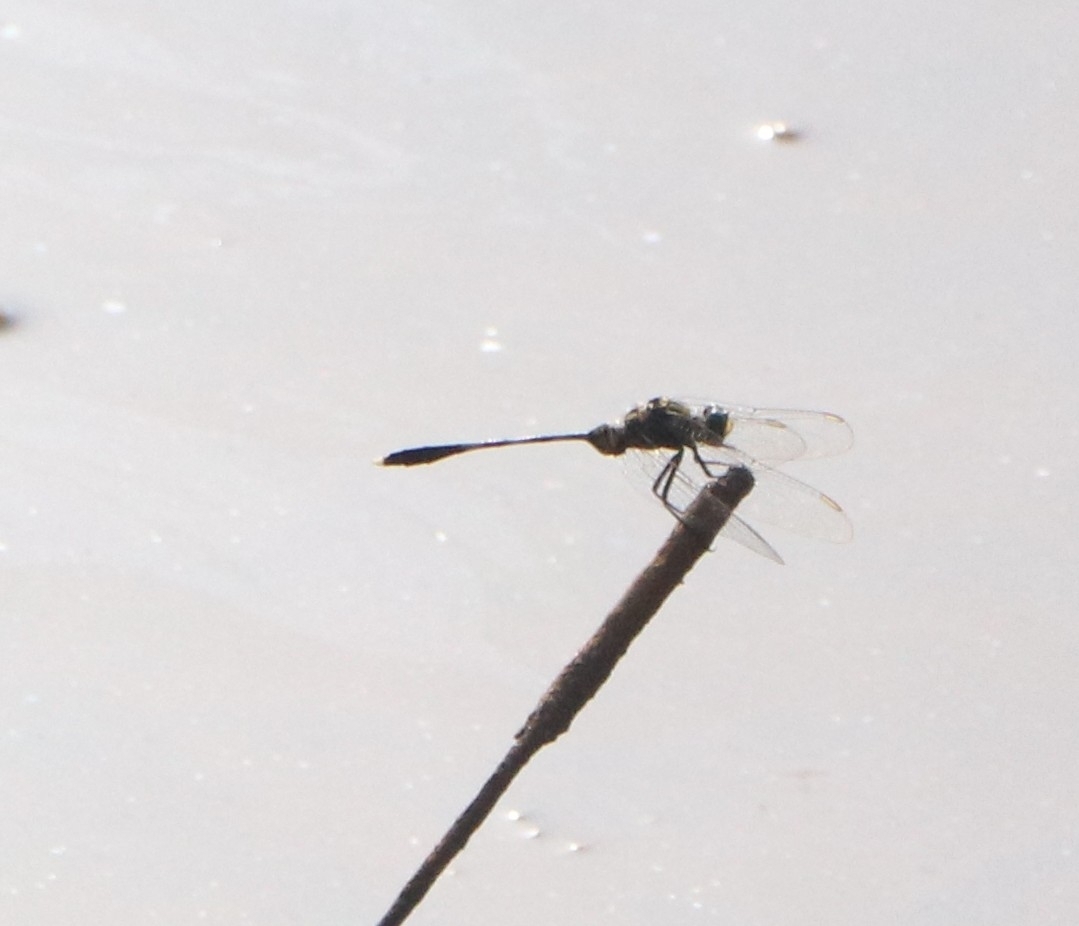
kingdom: Animalia
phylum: Arthropoda
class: Insecta
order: Odonata
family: Libellulidae
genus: Orthetrum
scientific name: Orthetrum sabina
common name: Slender skimmer
